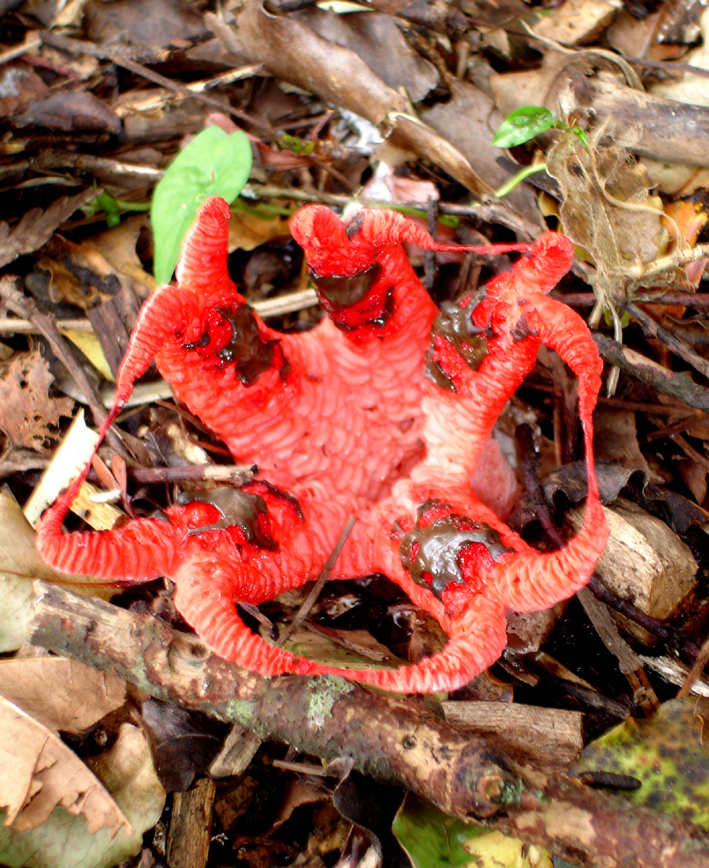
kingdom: Fungi
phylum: Basidiomycota
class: Agaricomycetes
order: Phallales
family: Phallaceae
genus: Clathrus
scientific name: Clathrus archeri
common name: Devil's fingers
